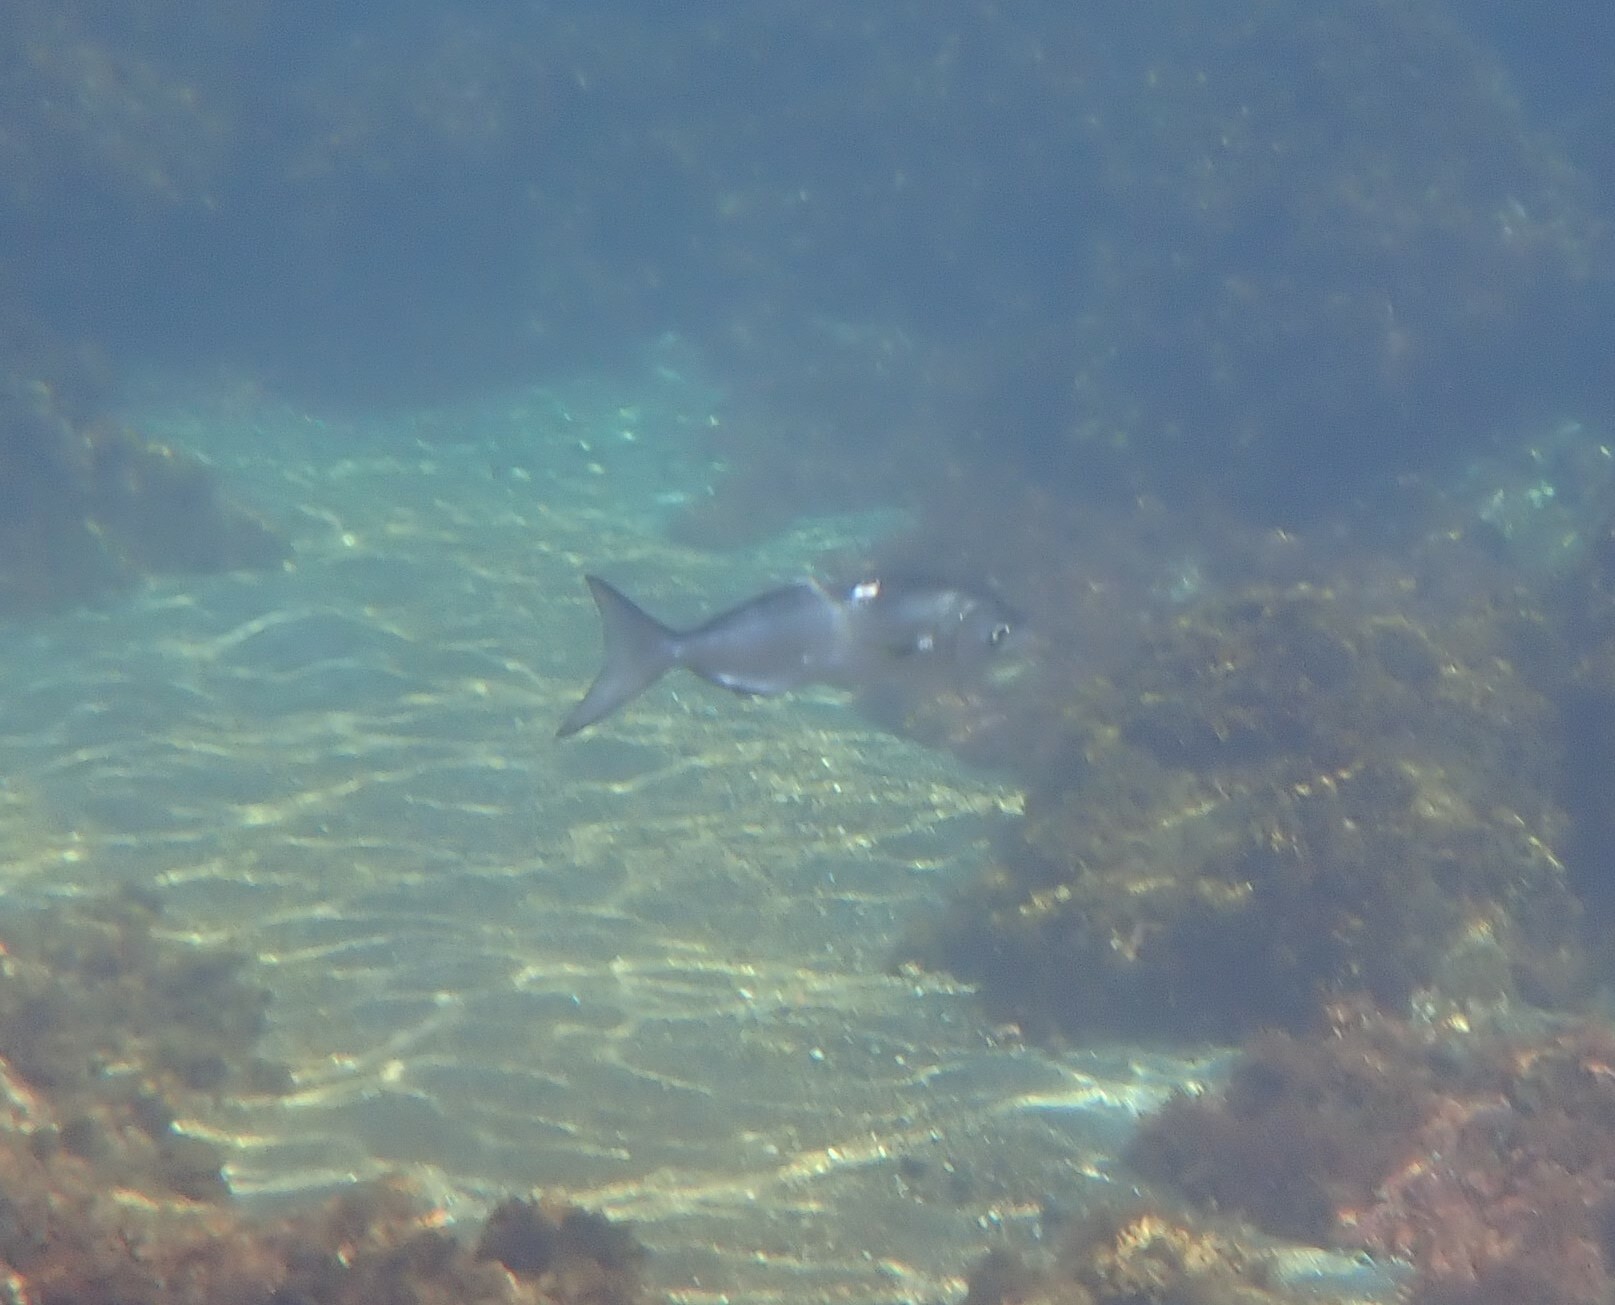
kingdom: Animalia
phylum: Chordata
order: Perciformes
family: Pomatomidae
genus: Pomatomus
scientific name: Pomatomus saltatrix
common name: Bluefish
